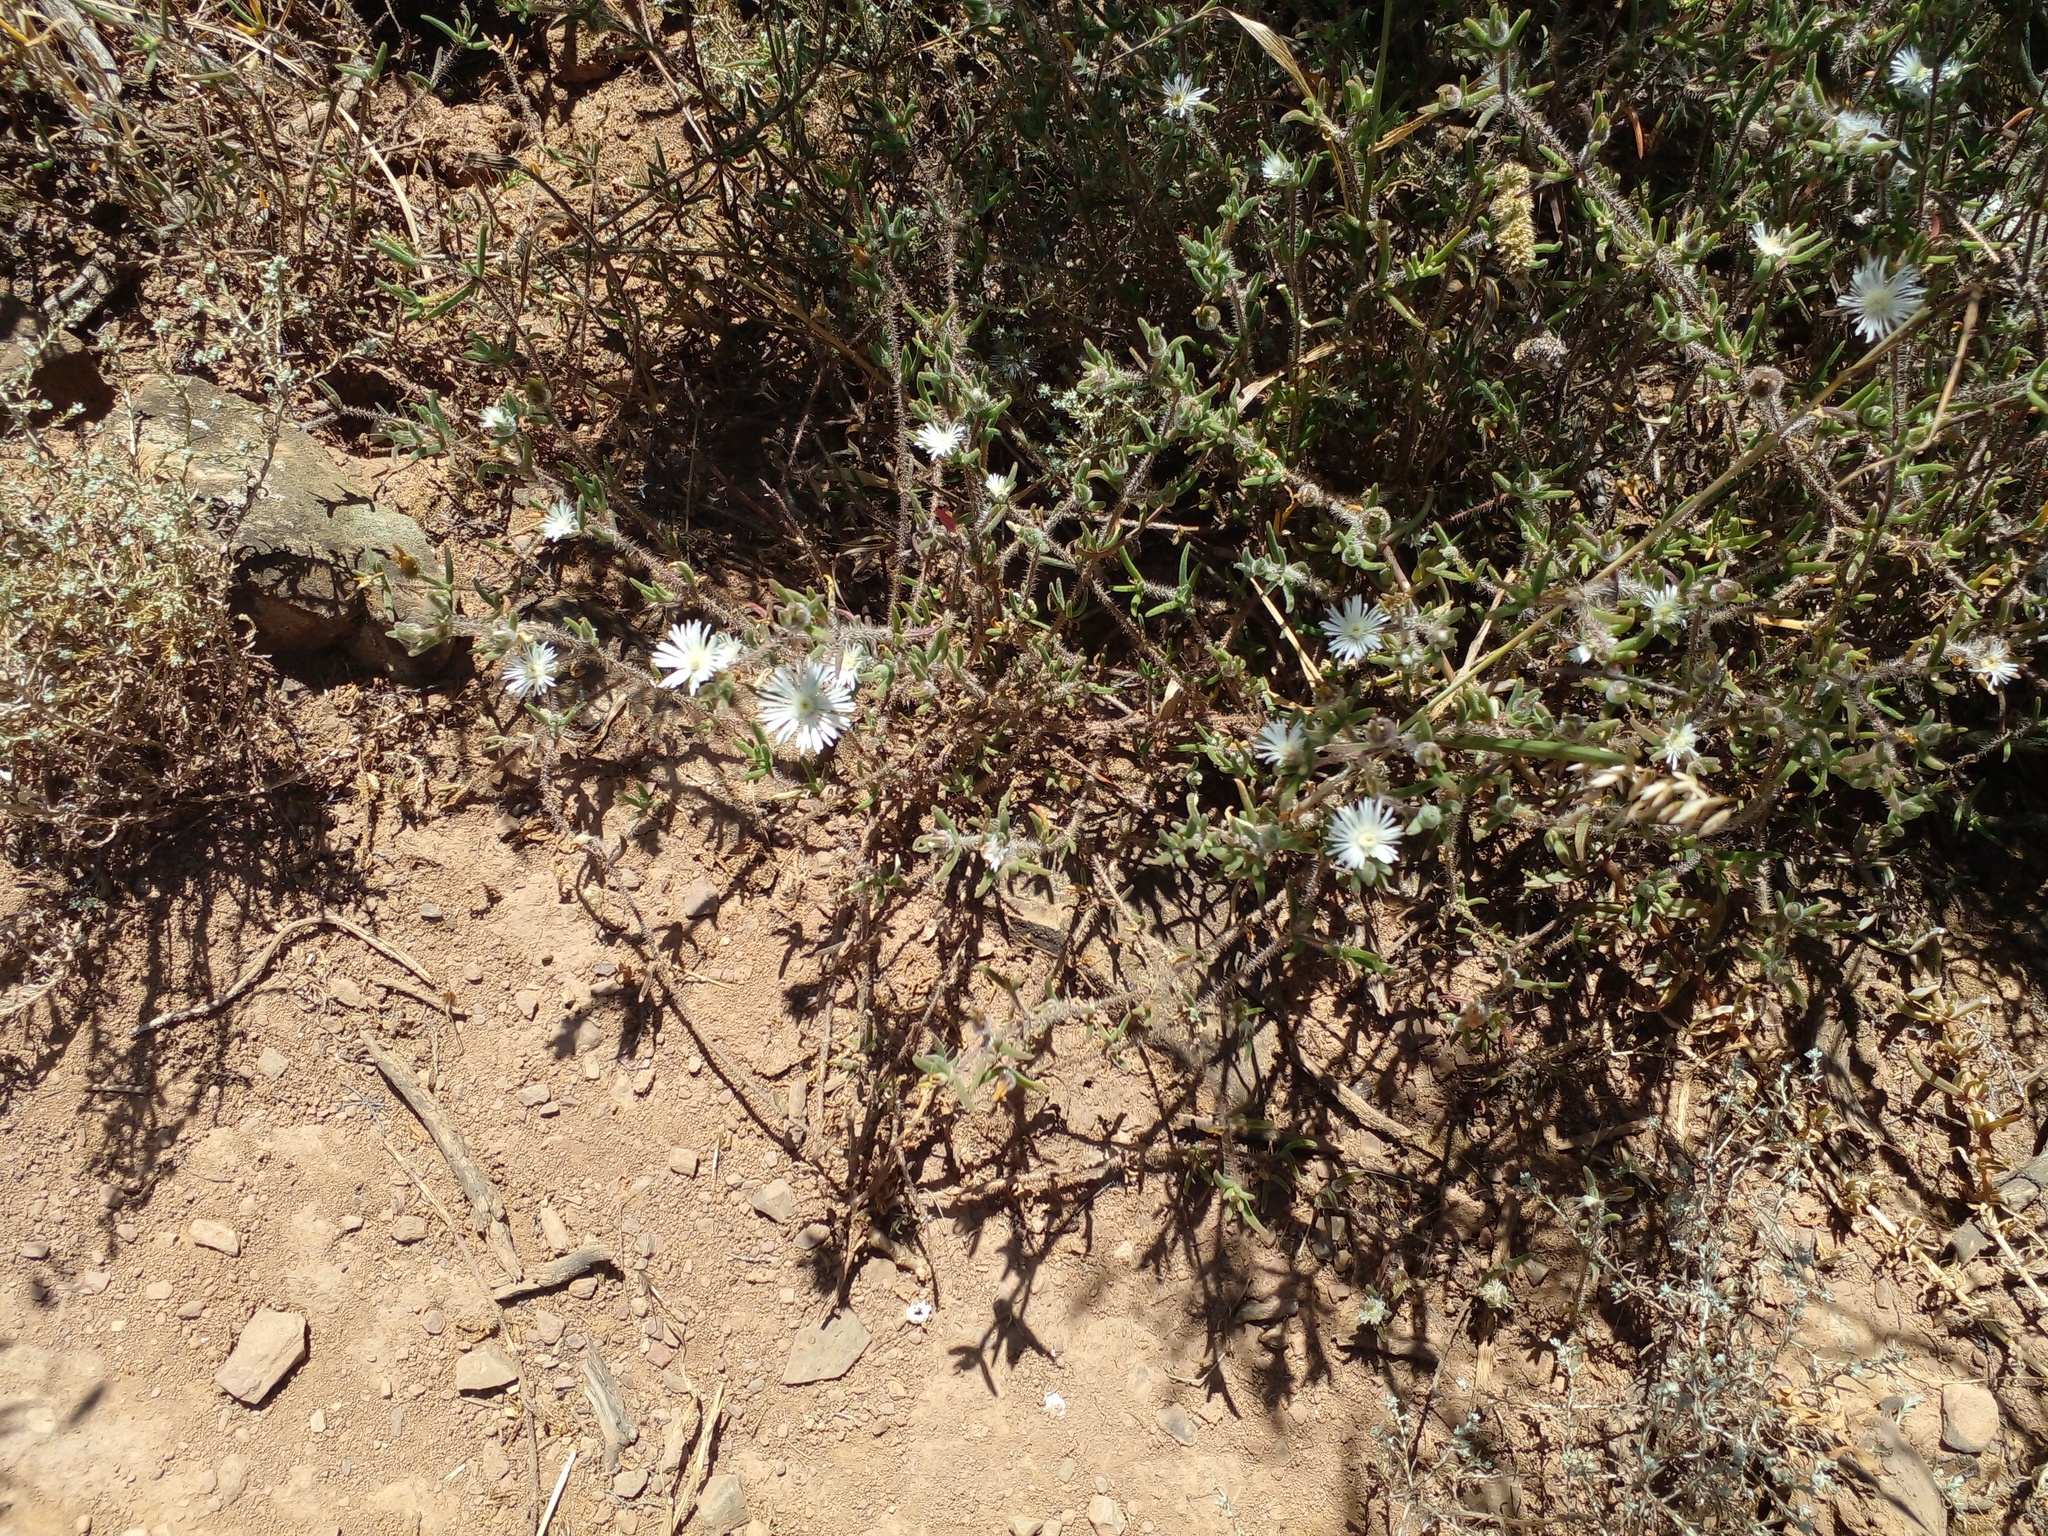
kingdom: Plantae
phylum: Tracheophyta
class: Magnoliopsida
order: Caryophyllales
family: Aizoaceae
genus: Drosanthemum
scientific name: Drosanthemum calycinum
